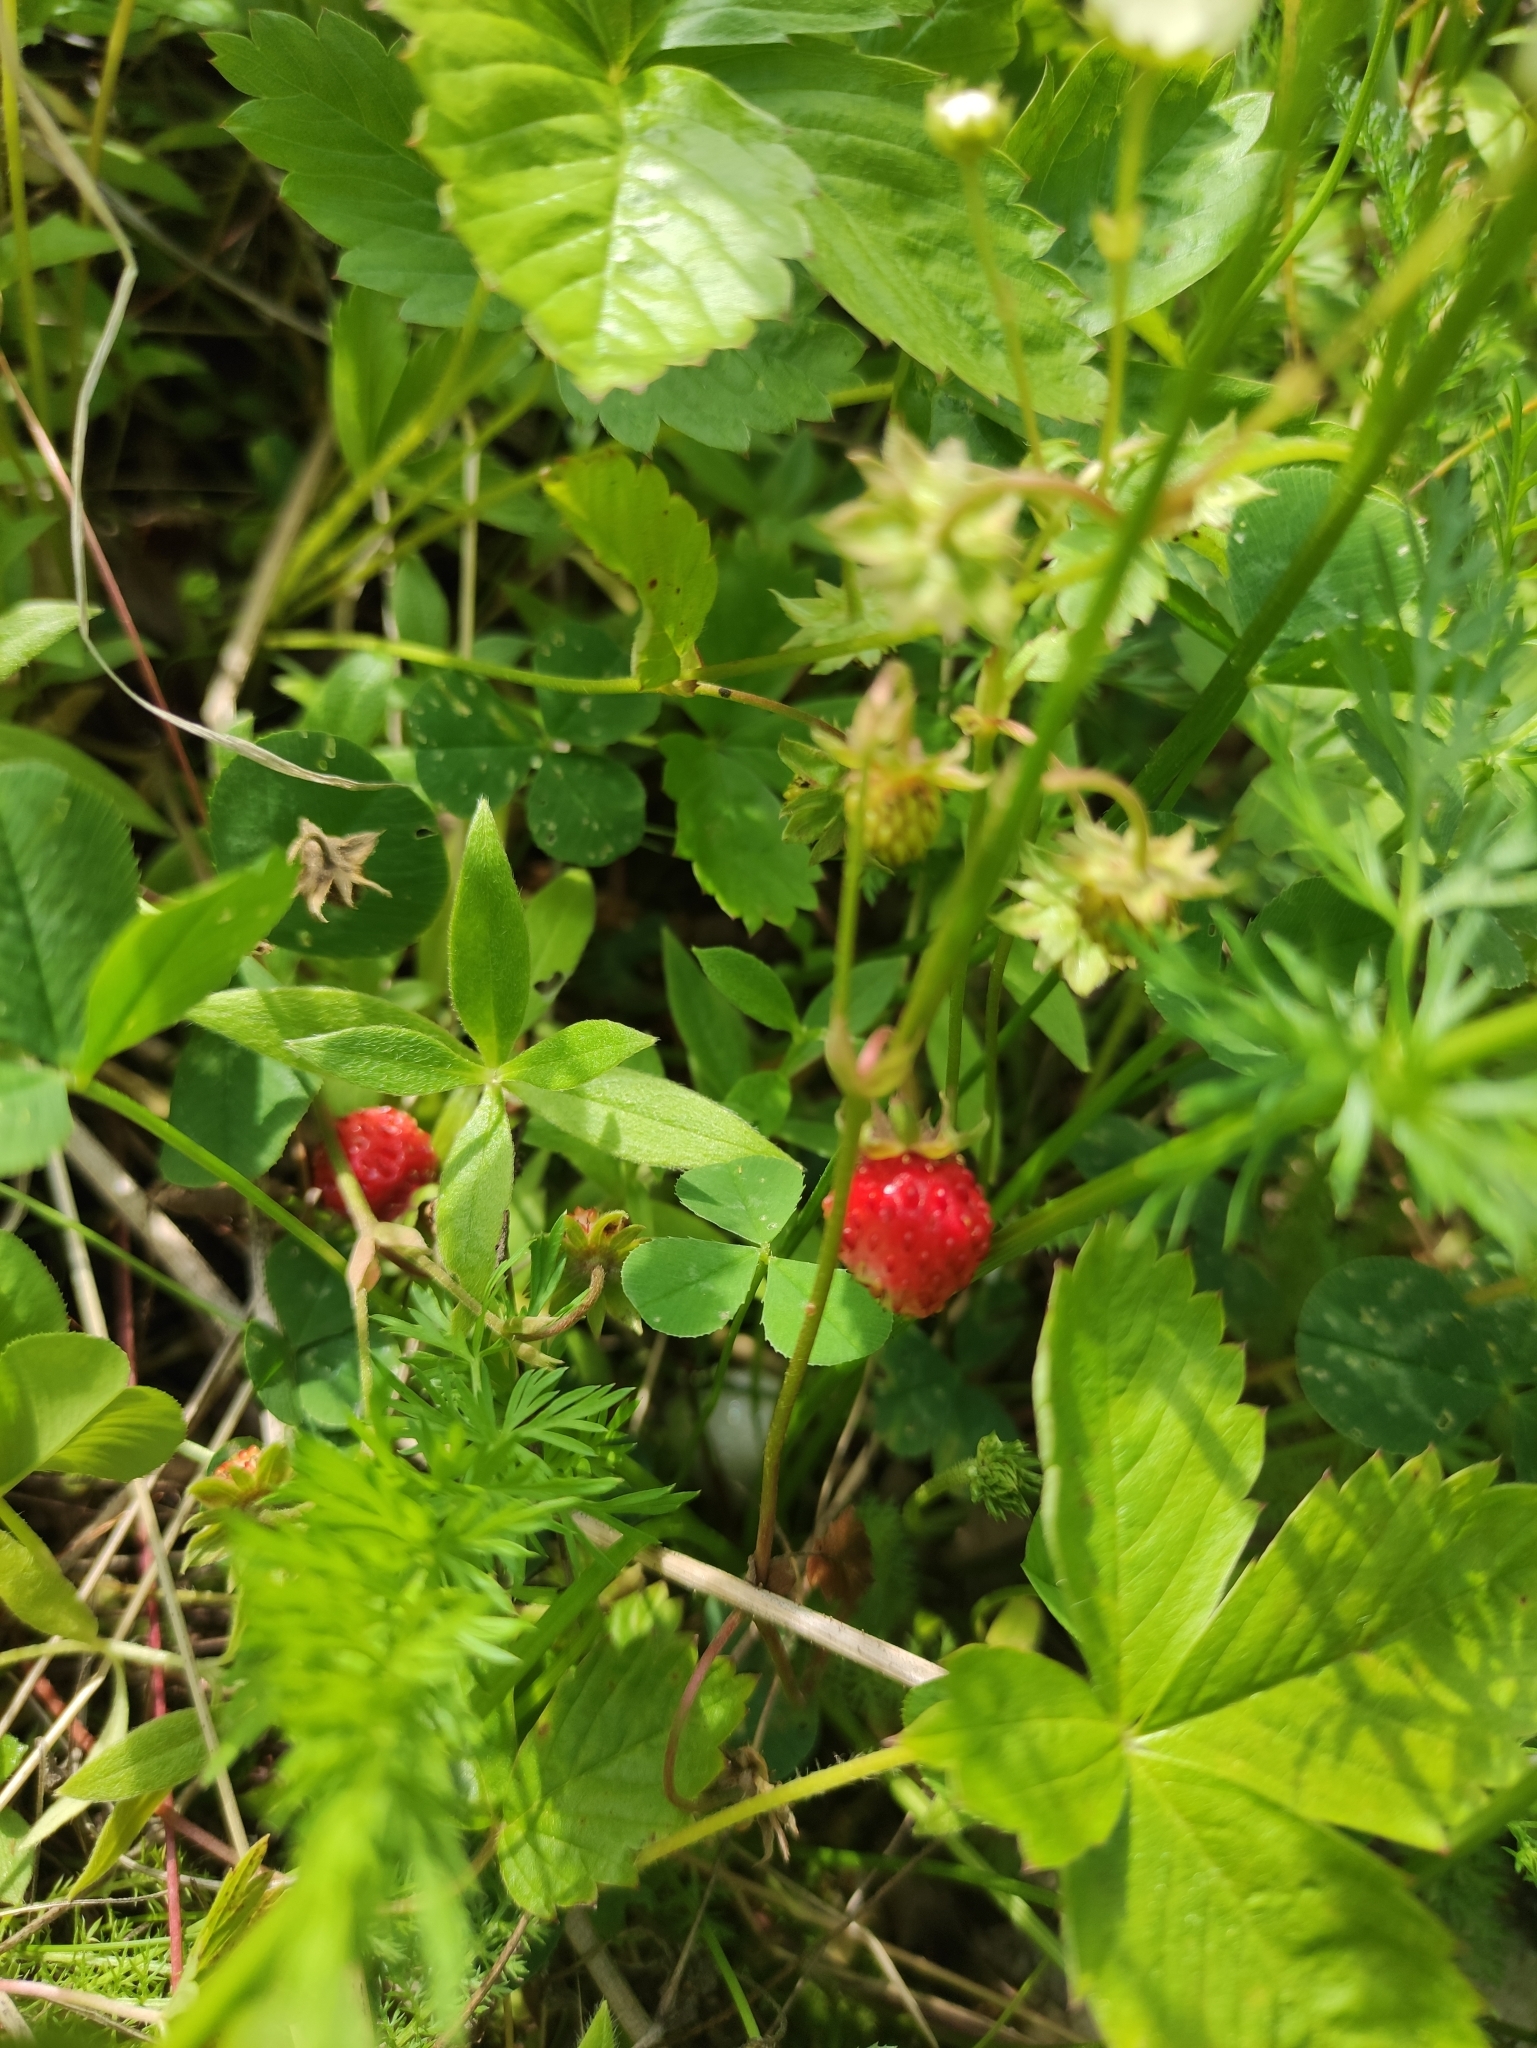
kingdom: Plantae
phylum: Tracheophyta
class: Magnoliopsida
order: Rosales
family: Rosaceae
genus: Fragaria
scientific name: Fragaria vesca
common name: Wild strawberry
